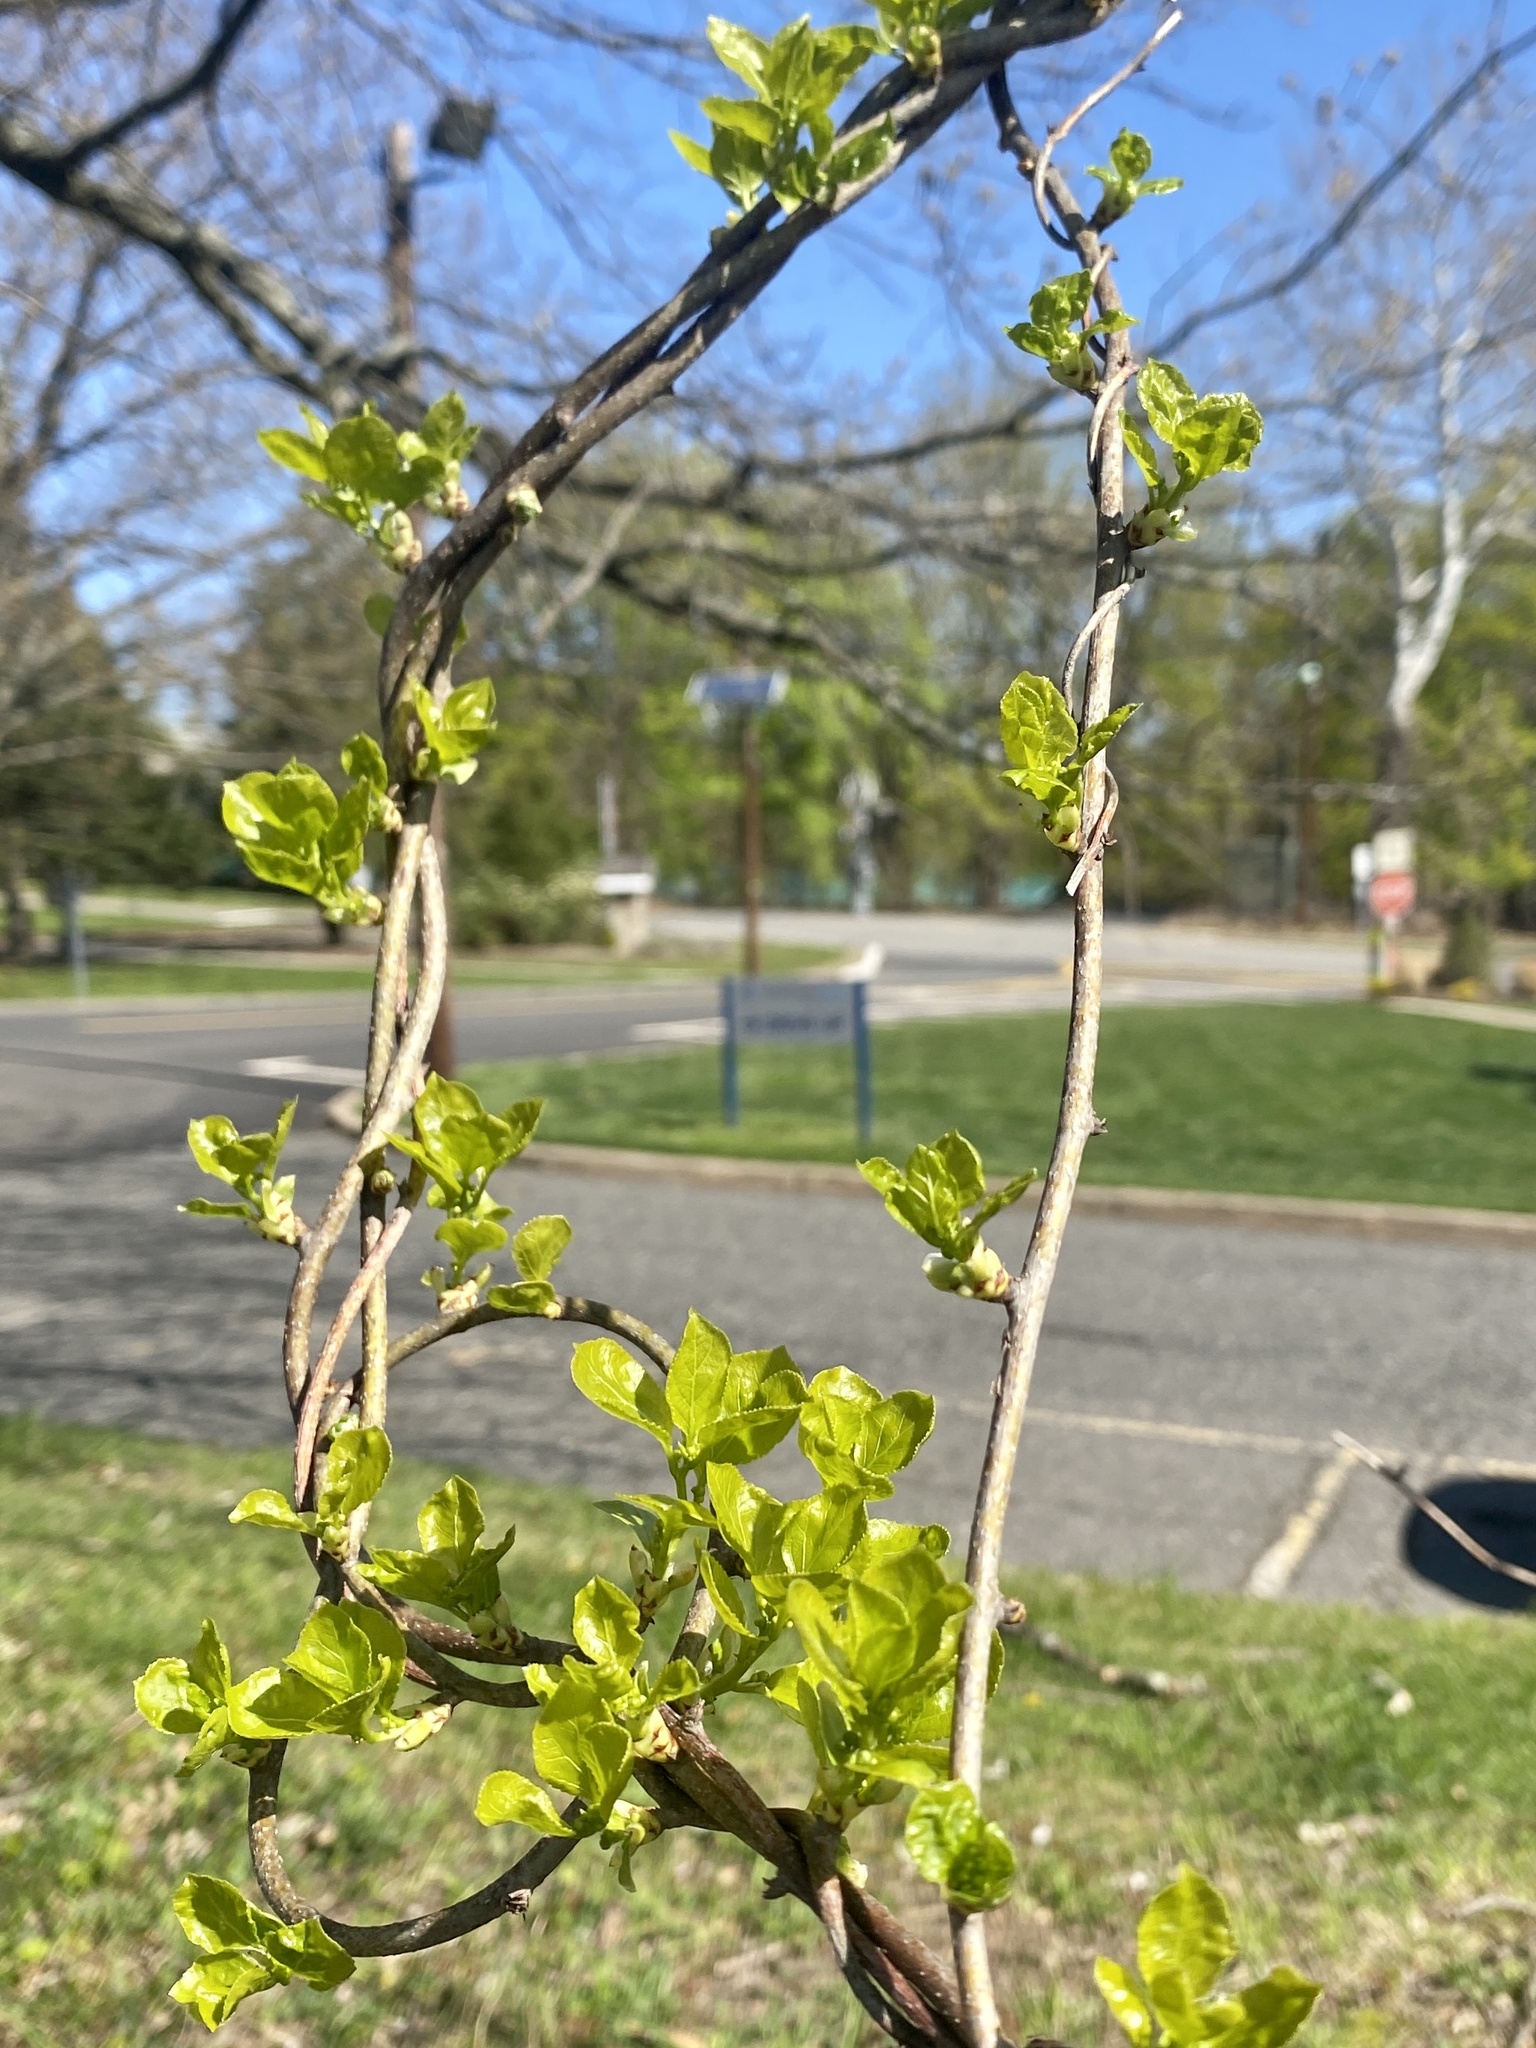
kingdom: Plantae
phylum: Tracheophyta
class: Magnoliopsida
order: Celastrales
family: Celastraceae
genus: Celastrus
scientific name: Celastrus orbiculatus
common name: Oriental bittersweet
